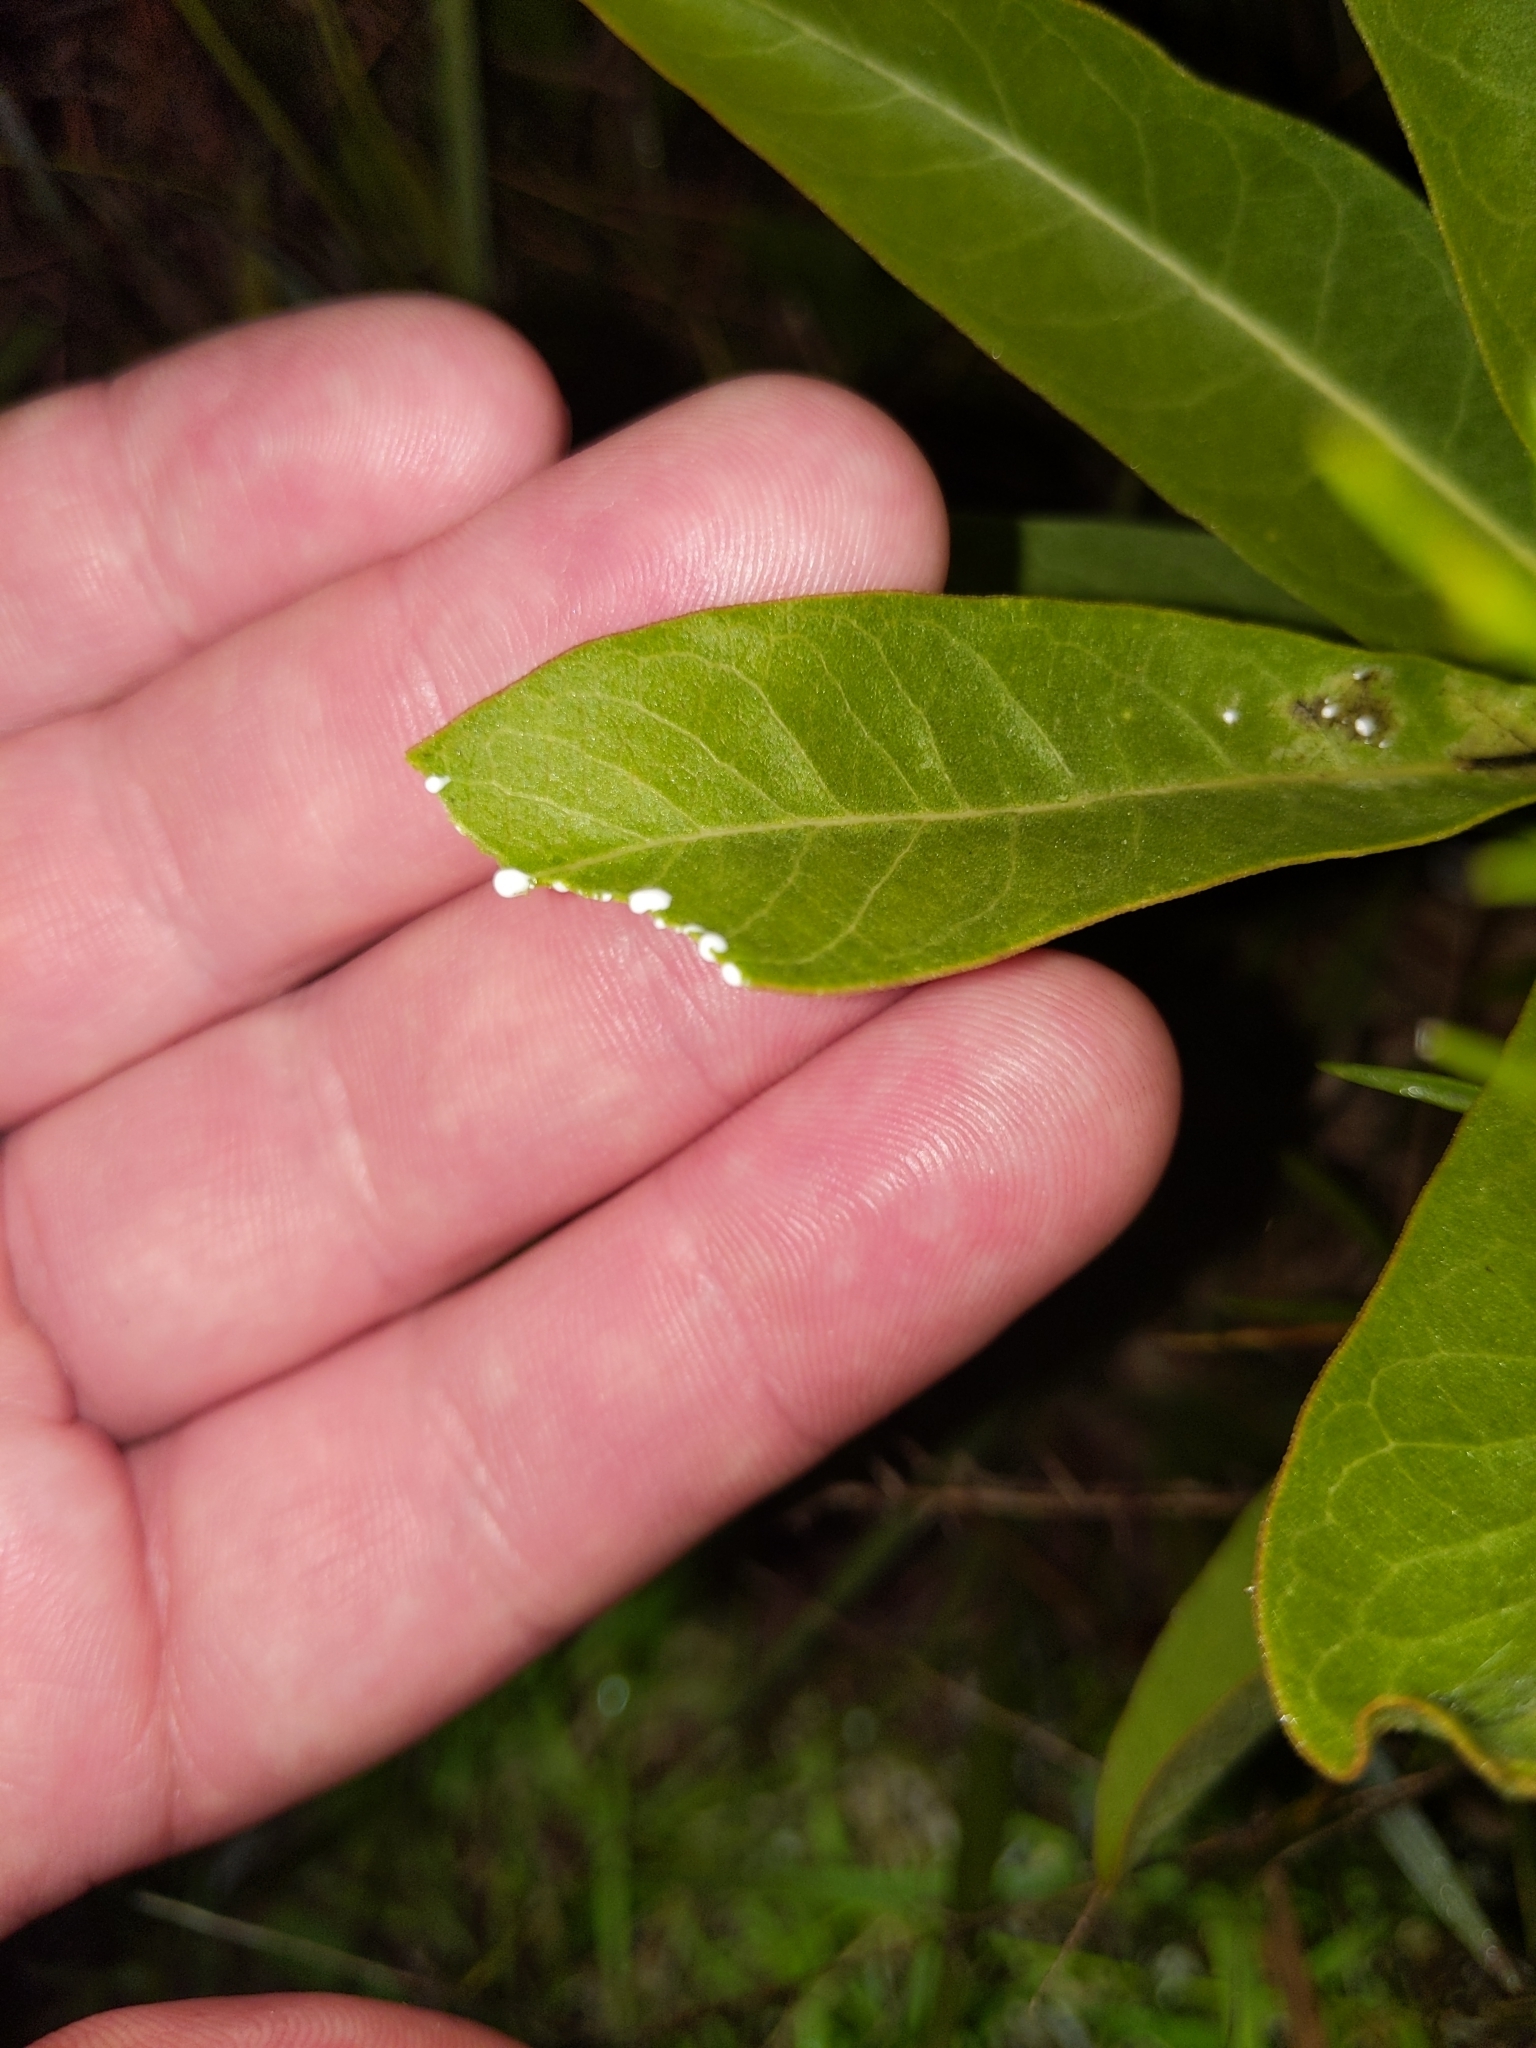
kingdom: Plantae
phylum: Tracheophyta
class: Magnoliopsida
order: Gentianales
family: Apocynaceae
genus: Asclepias
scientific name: Asclepias viridis
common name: Antelope-horns
